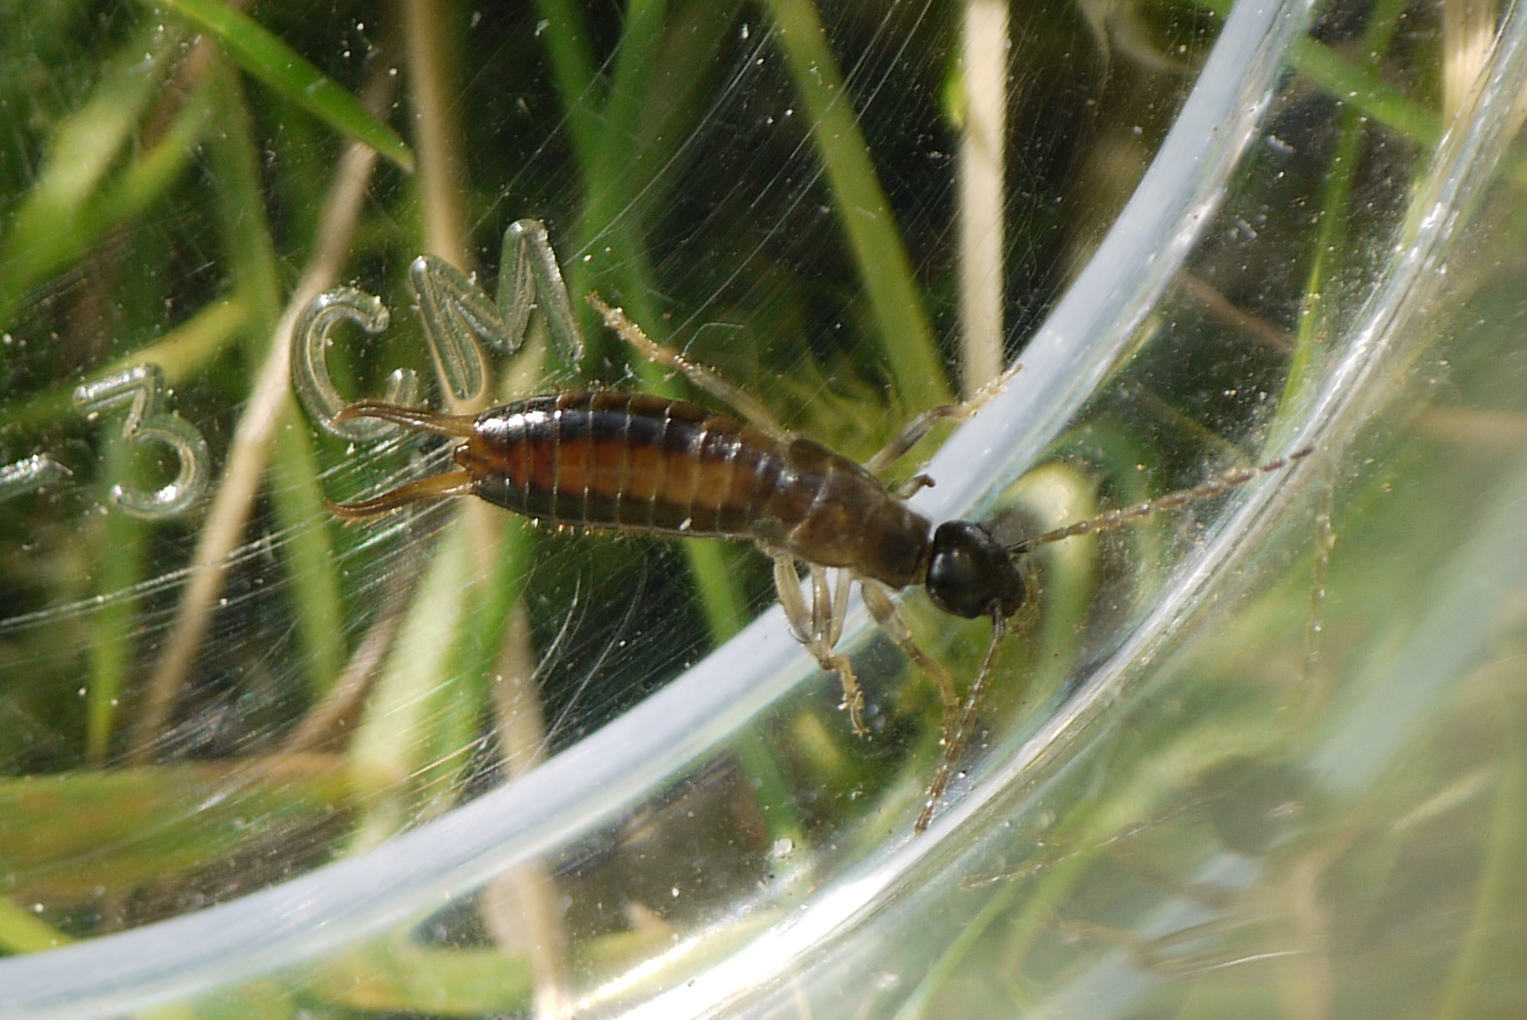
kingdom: Animalia
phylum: Arthropoda
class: Insecta
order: Dermaptera
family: Forficulidae
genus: Apterygida
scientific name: Apterygida albipennis
